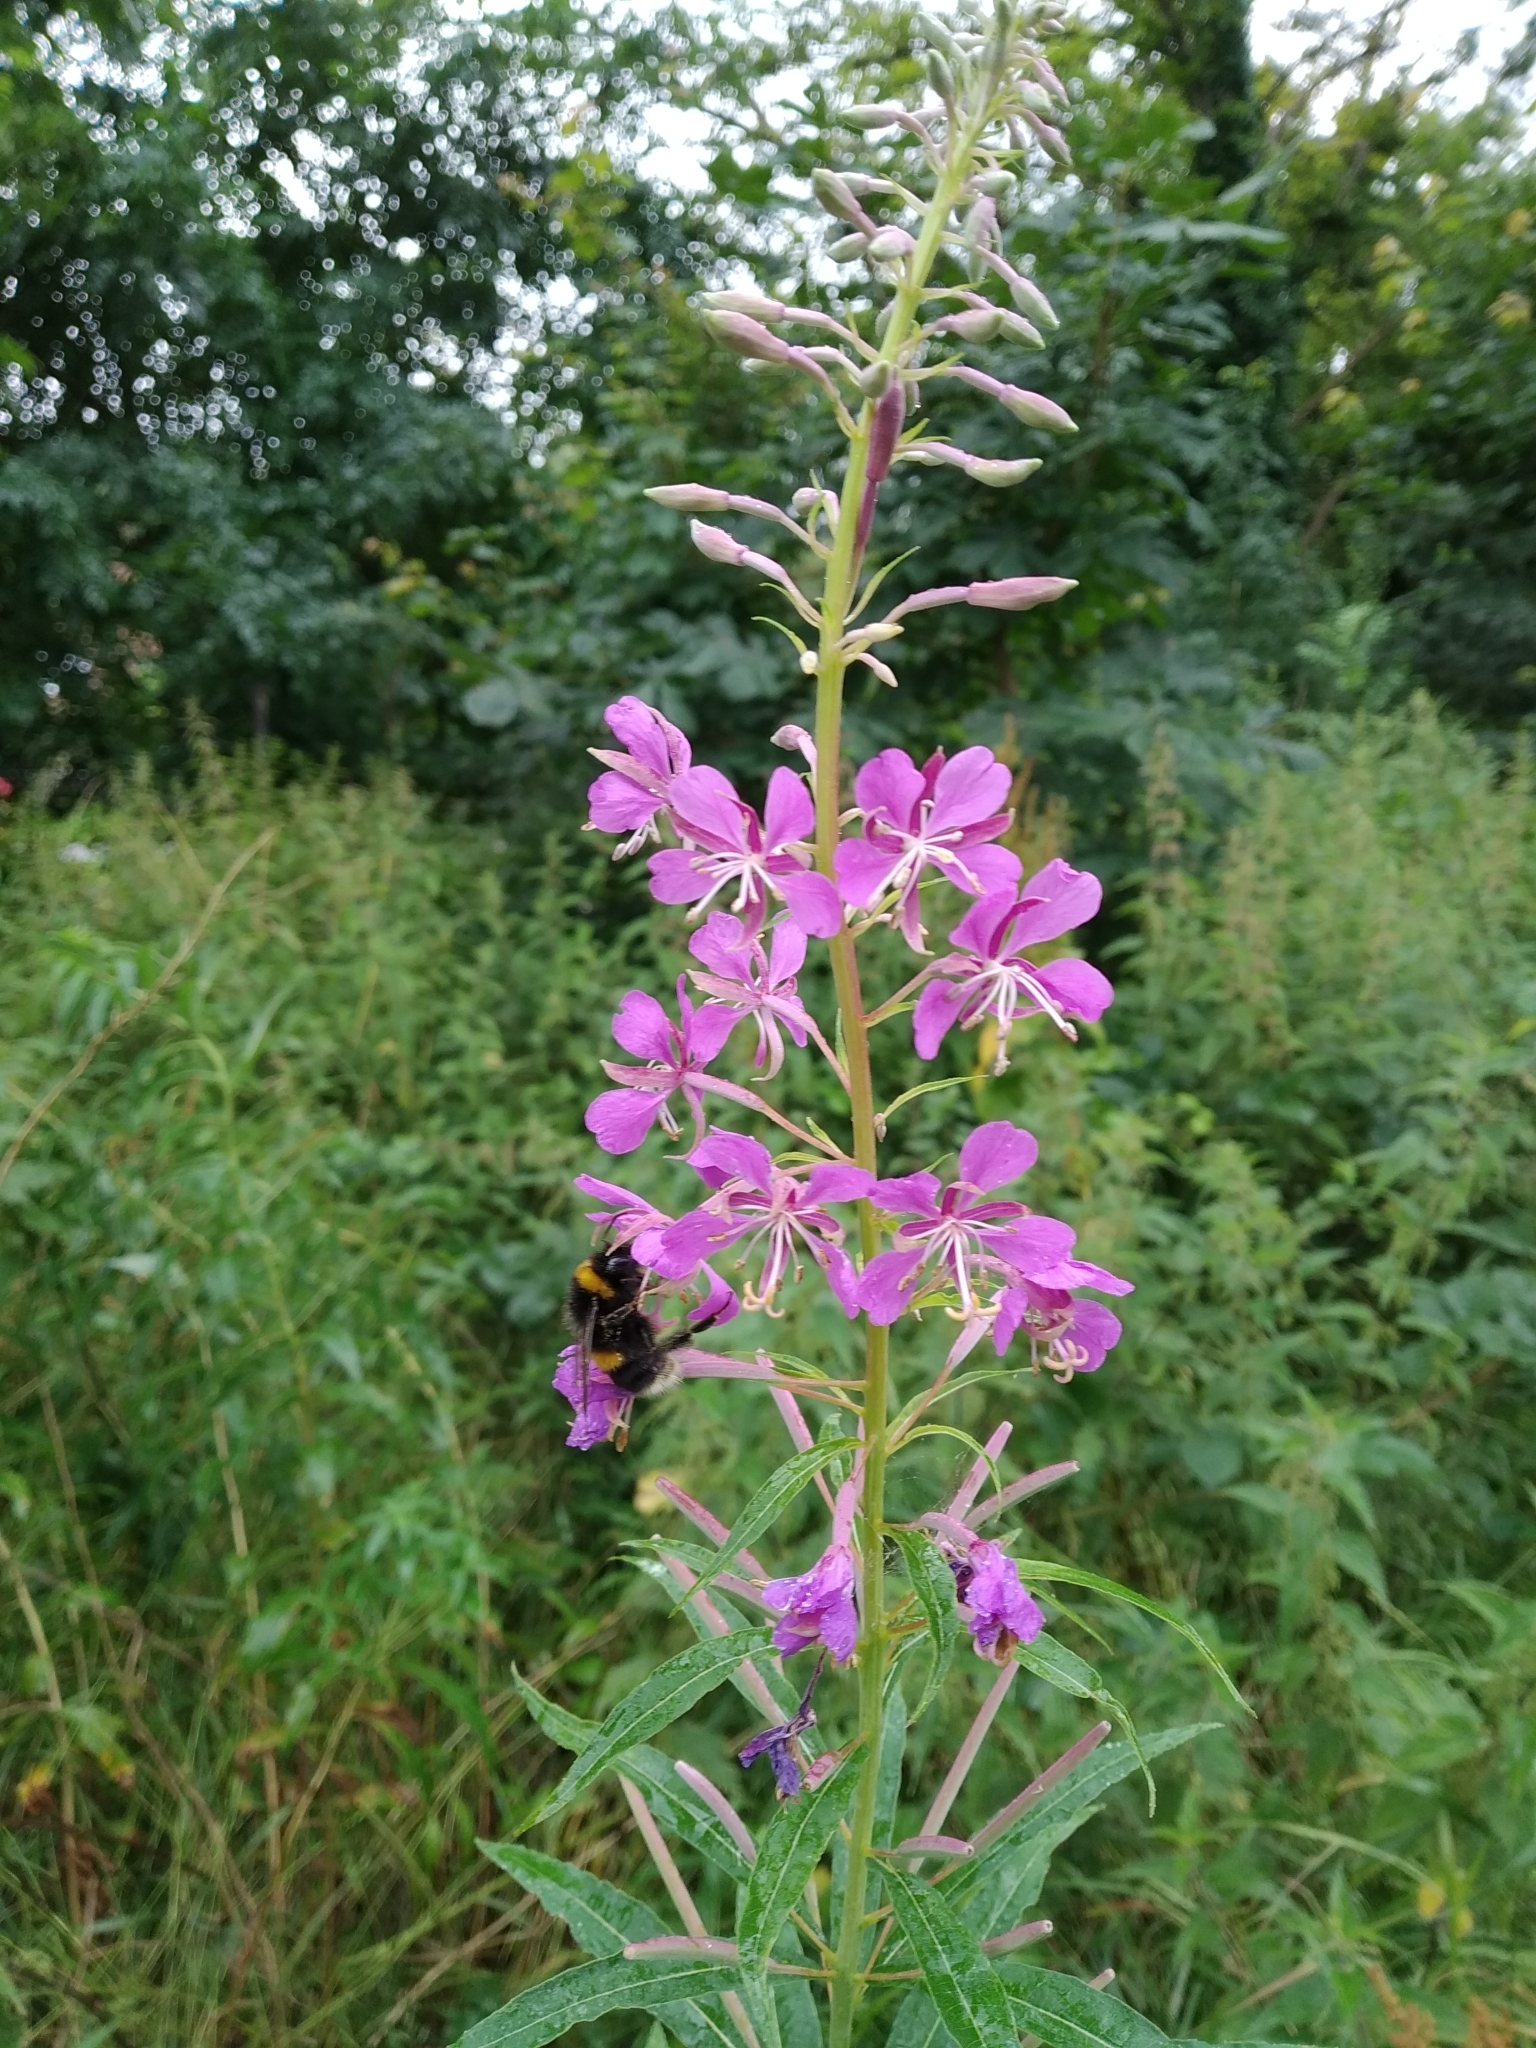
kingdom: Plantae
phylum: Tracheophyta
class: Magnoliopsida
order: Myrtales
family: Onagraceae
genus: Chamaenerion
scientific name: Chamaenerion angustifolium
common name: Fireweed
